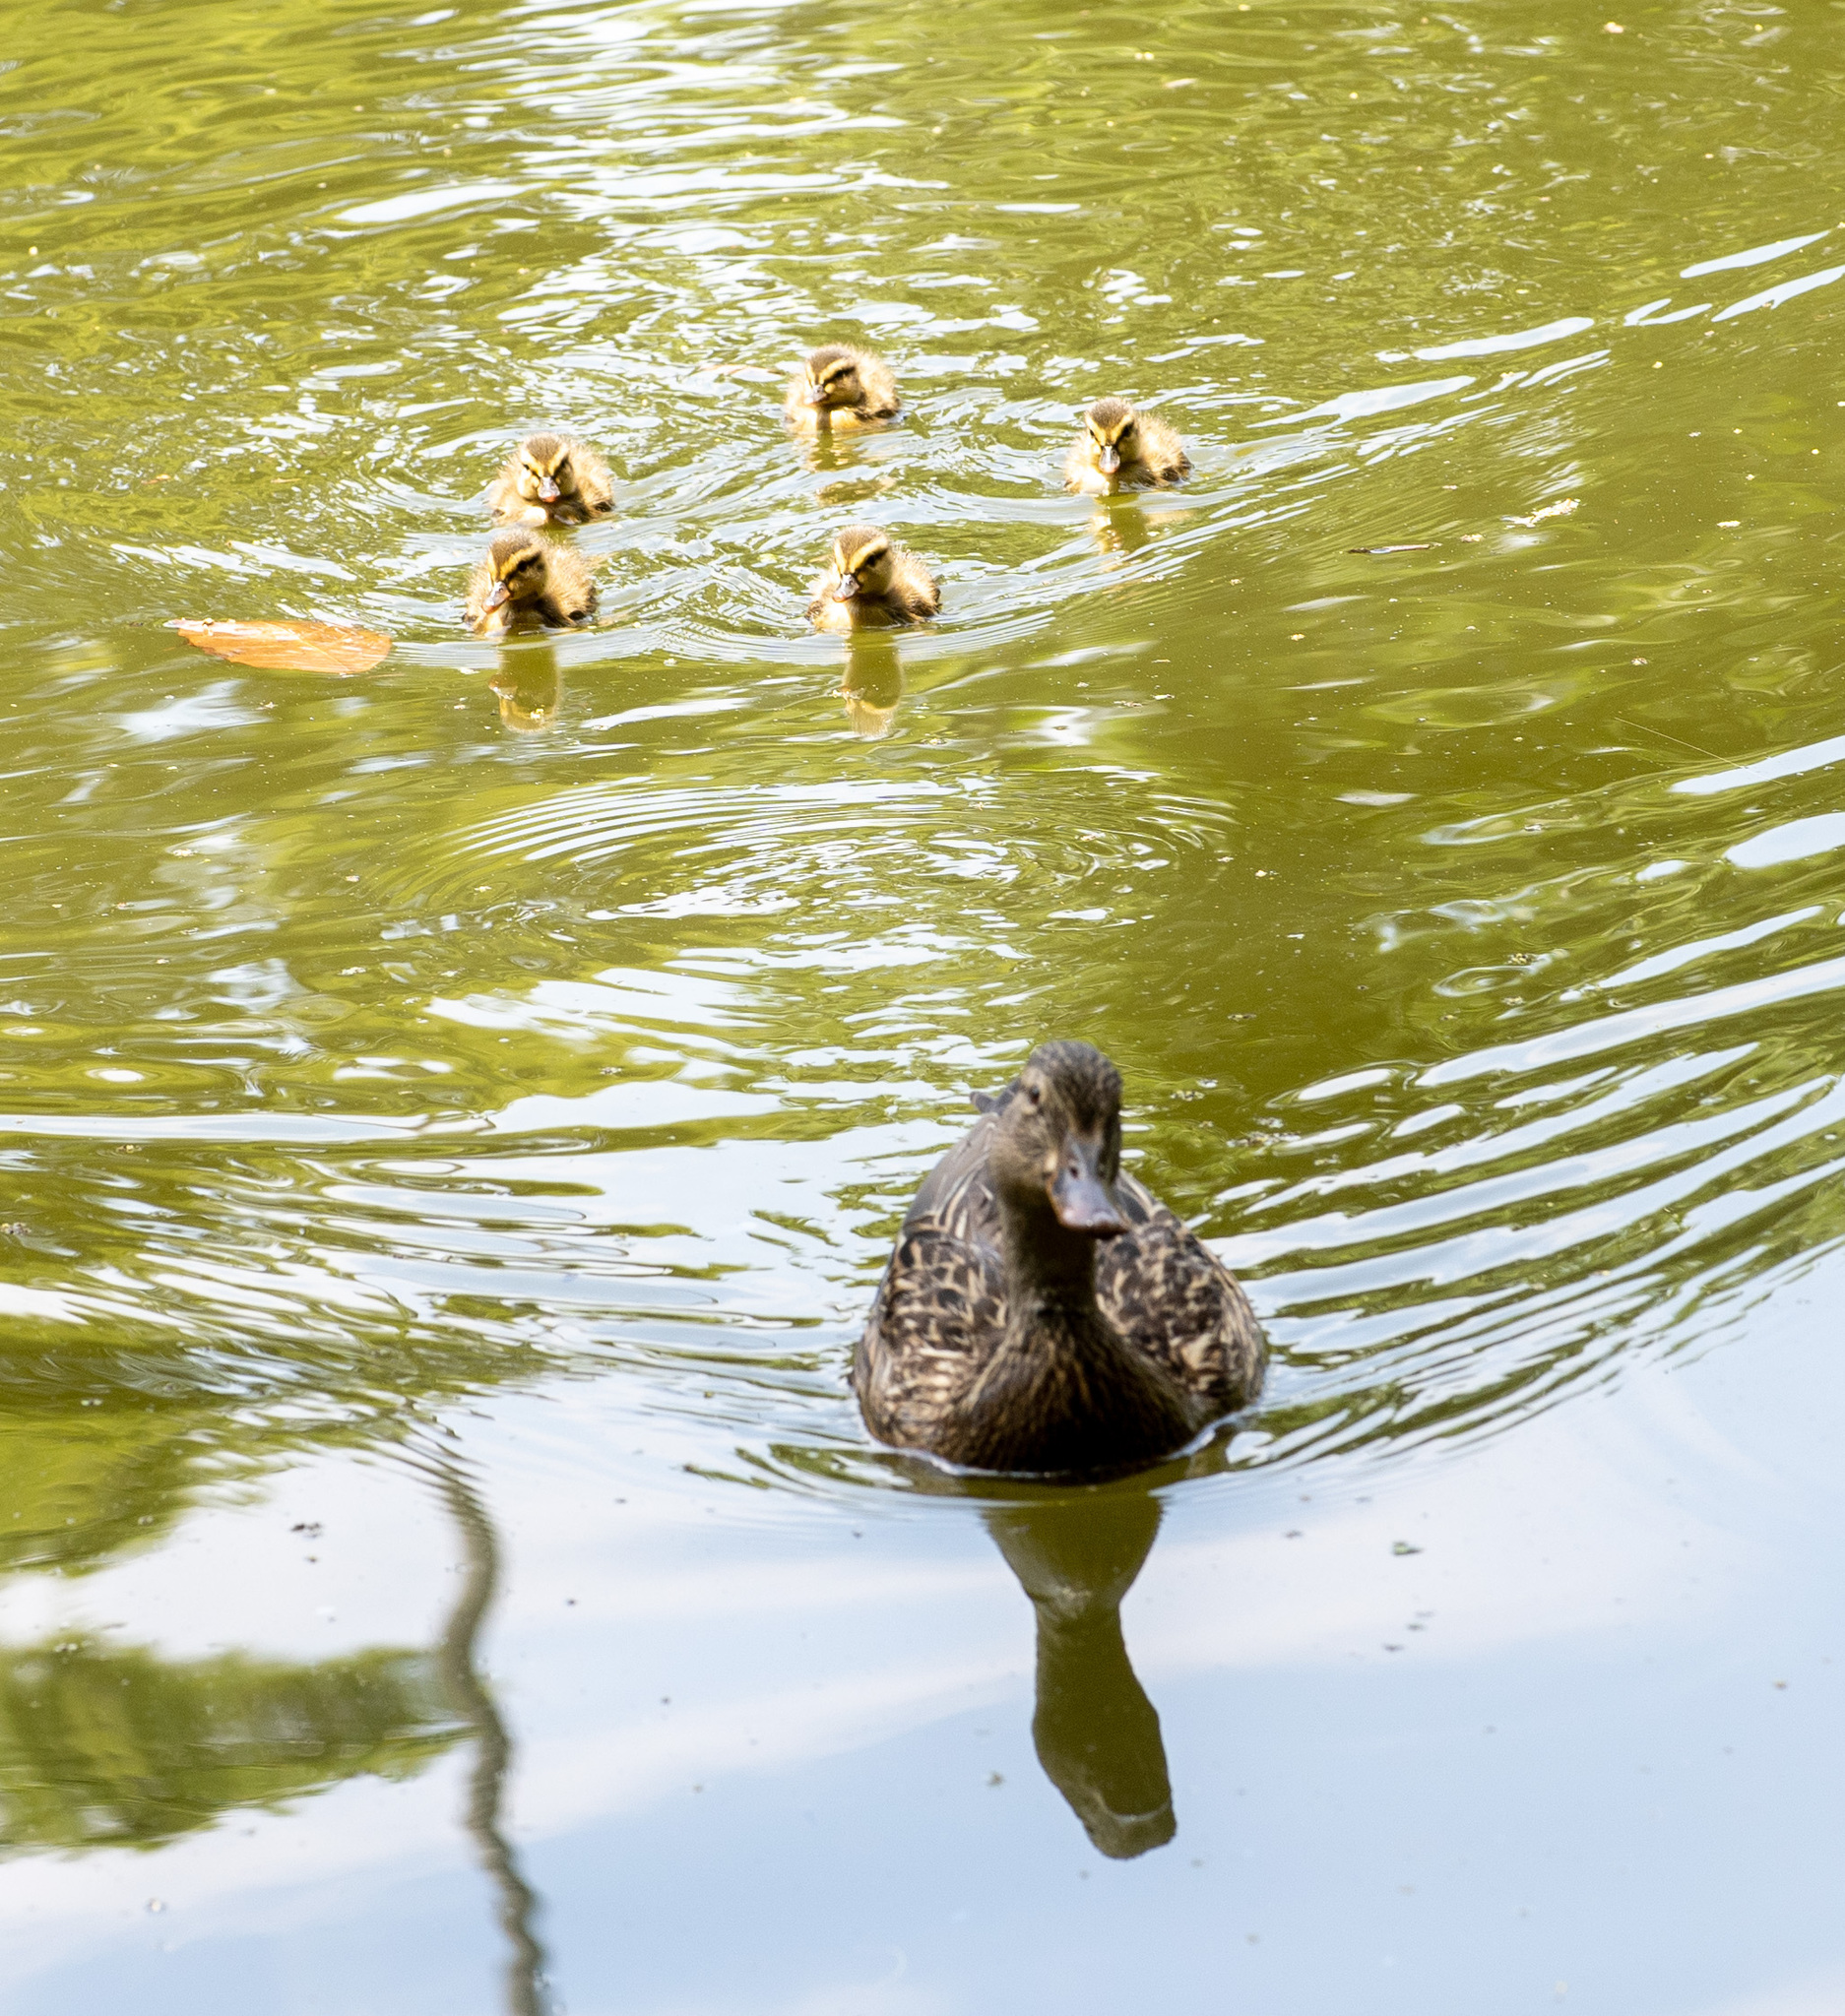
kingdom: Animalia
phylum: Chordata
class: Aves
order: Anseriformes
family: Anatidae
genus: Anas
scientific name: Anas platyrhynchos
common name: Mallard
